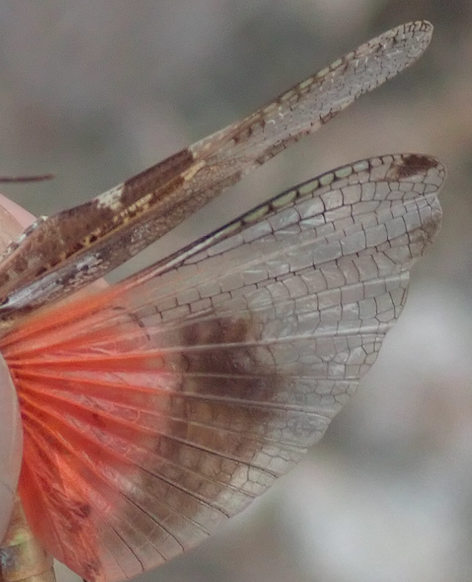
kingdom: Animalia
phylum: Arthropoda
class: Insecta
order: Orthoptera
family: Acrididae
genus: Acrotylus
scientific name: Acrotylus patruelis
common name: Slender burrowing grasshopper
